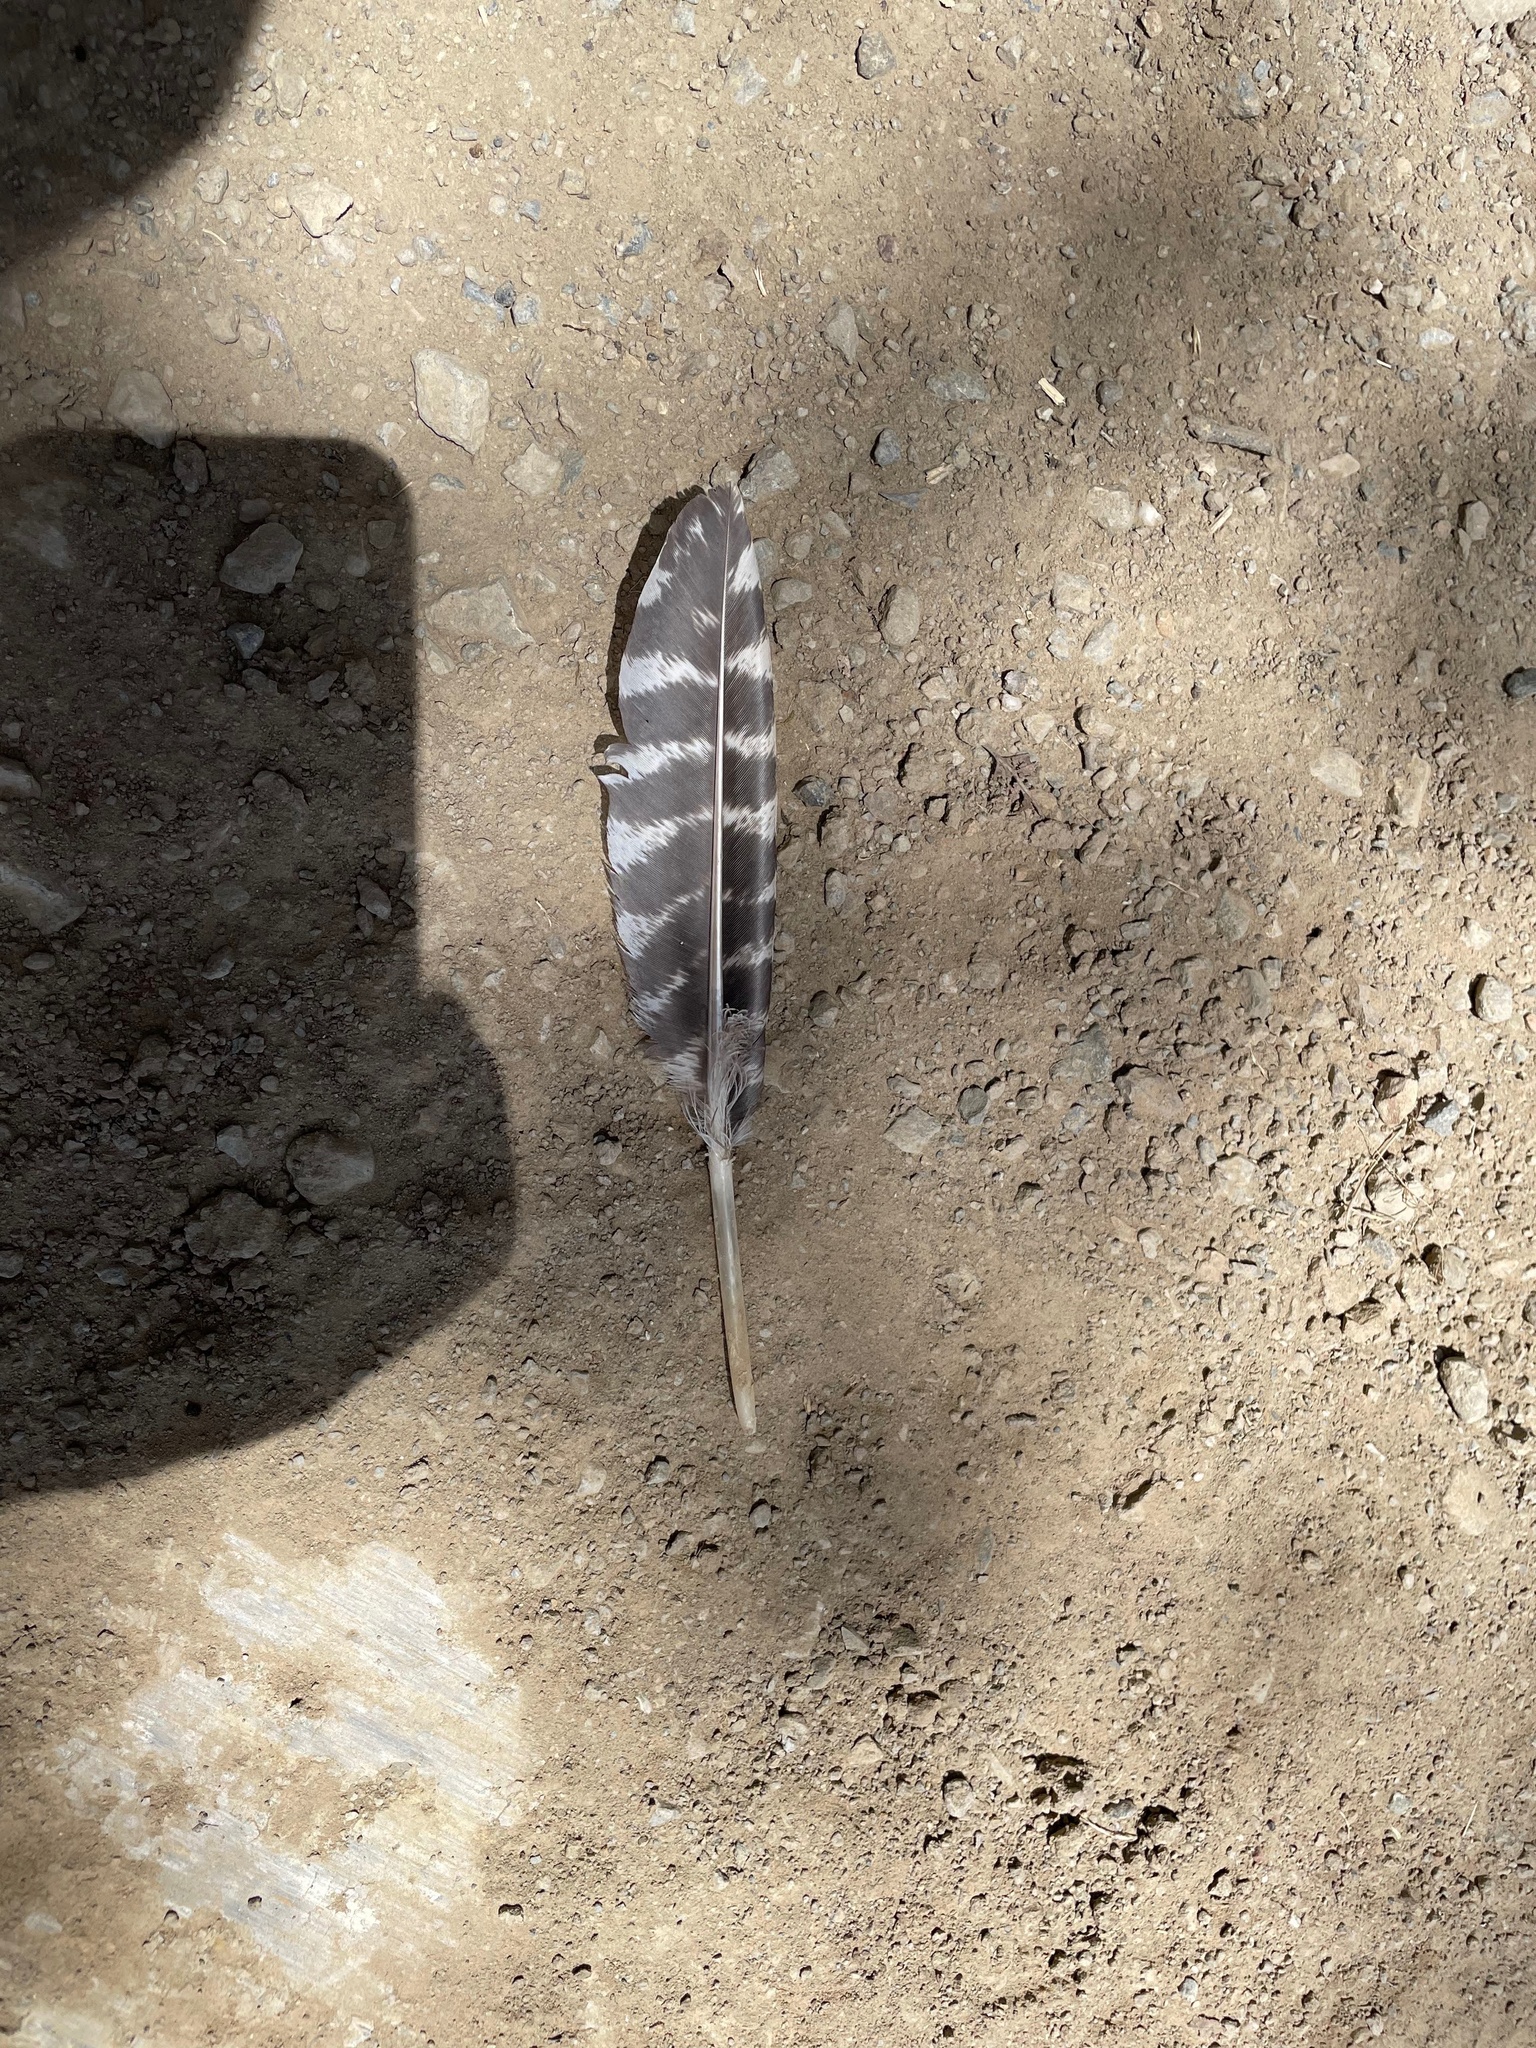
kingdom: Animalia
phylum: Chordata
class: Aves
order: Galliformes
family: Phasianidae
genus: Meleagris
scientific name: Meleagris gallopavo
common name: Wild turkey
